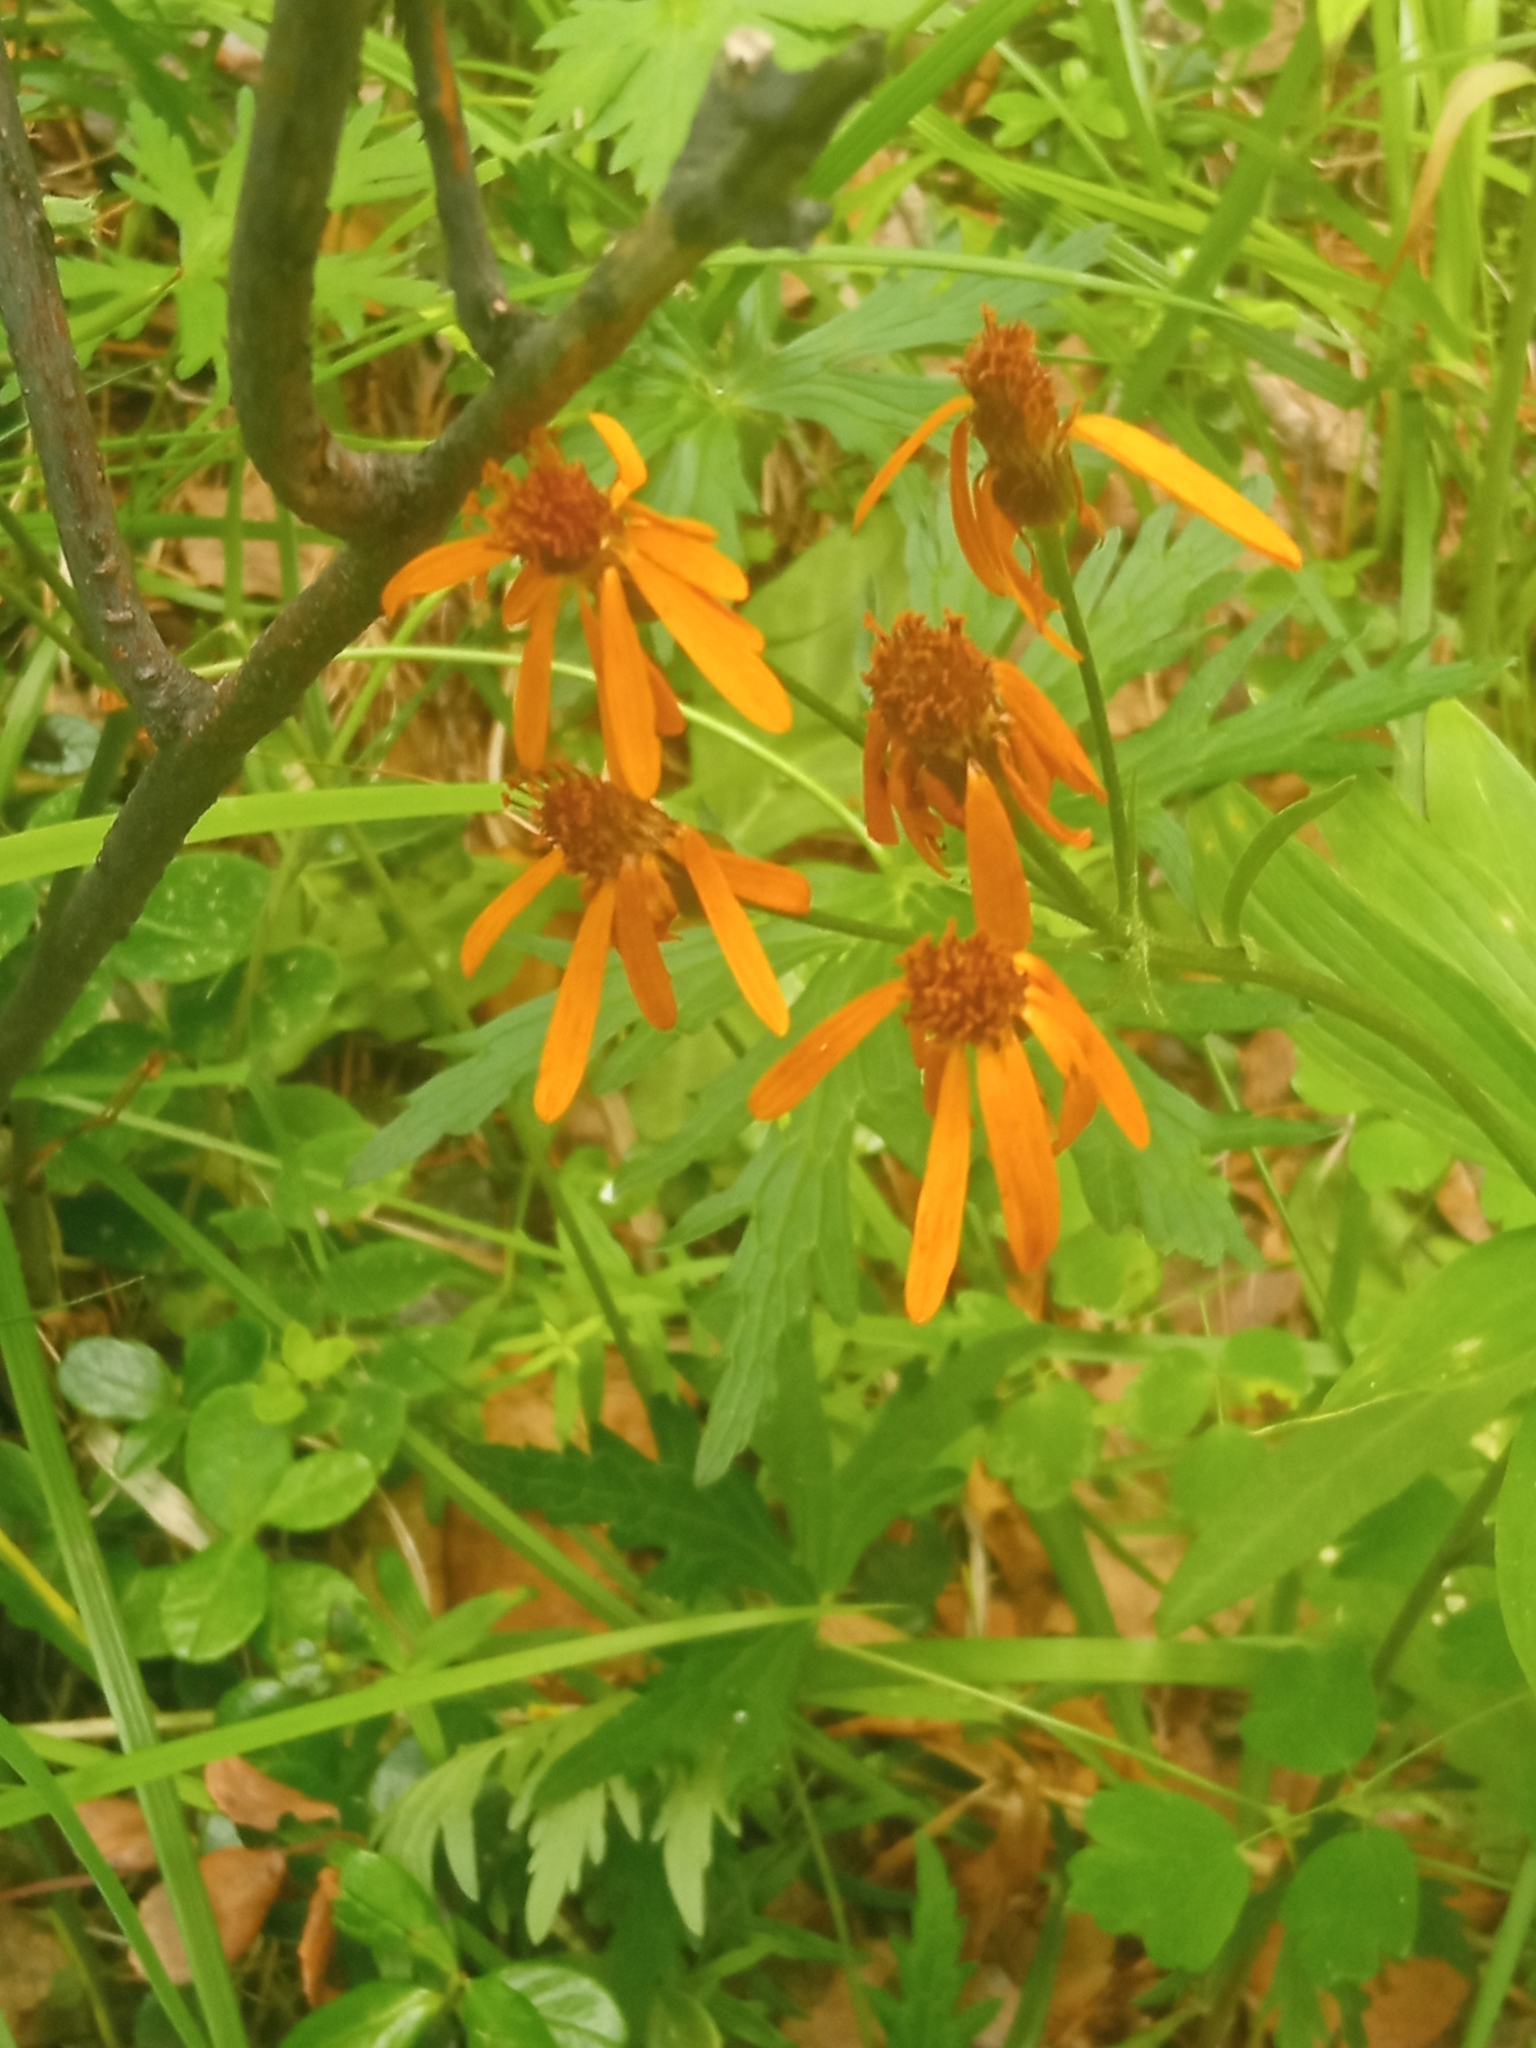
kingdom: Plantae
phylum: Tracheophyta
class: Magnoliopsida
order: Asterales
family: Asteraceae
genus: Tephroseris
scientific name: Tephroseris porphyrantha
